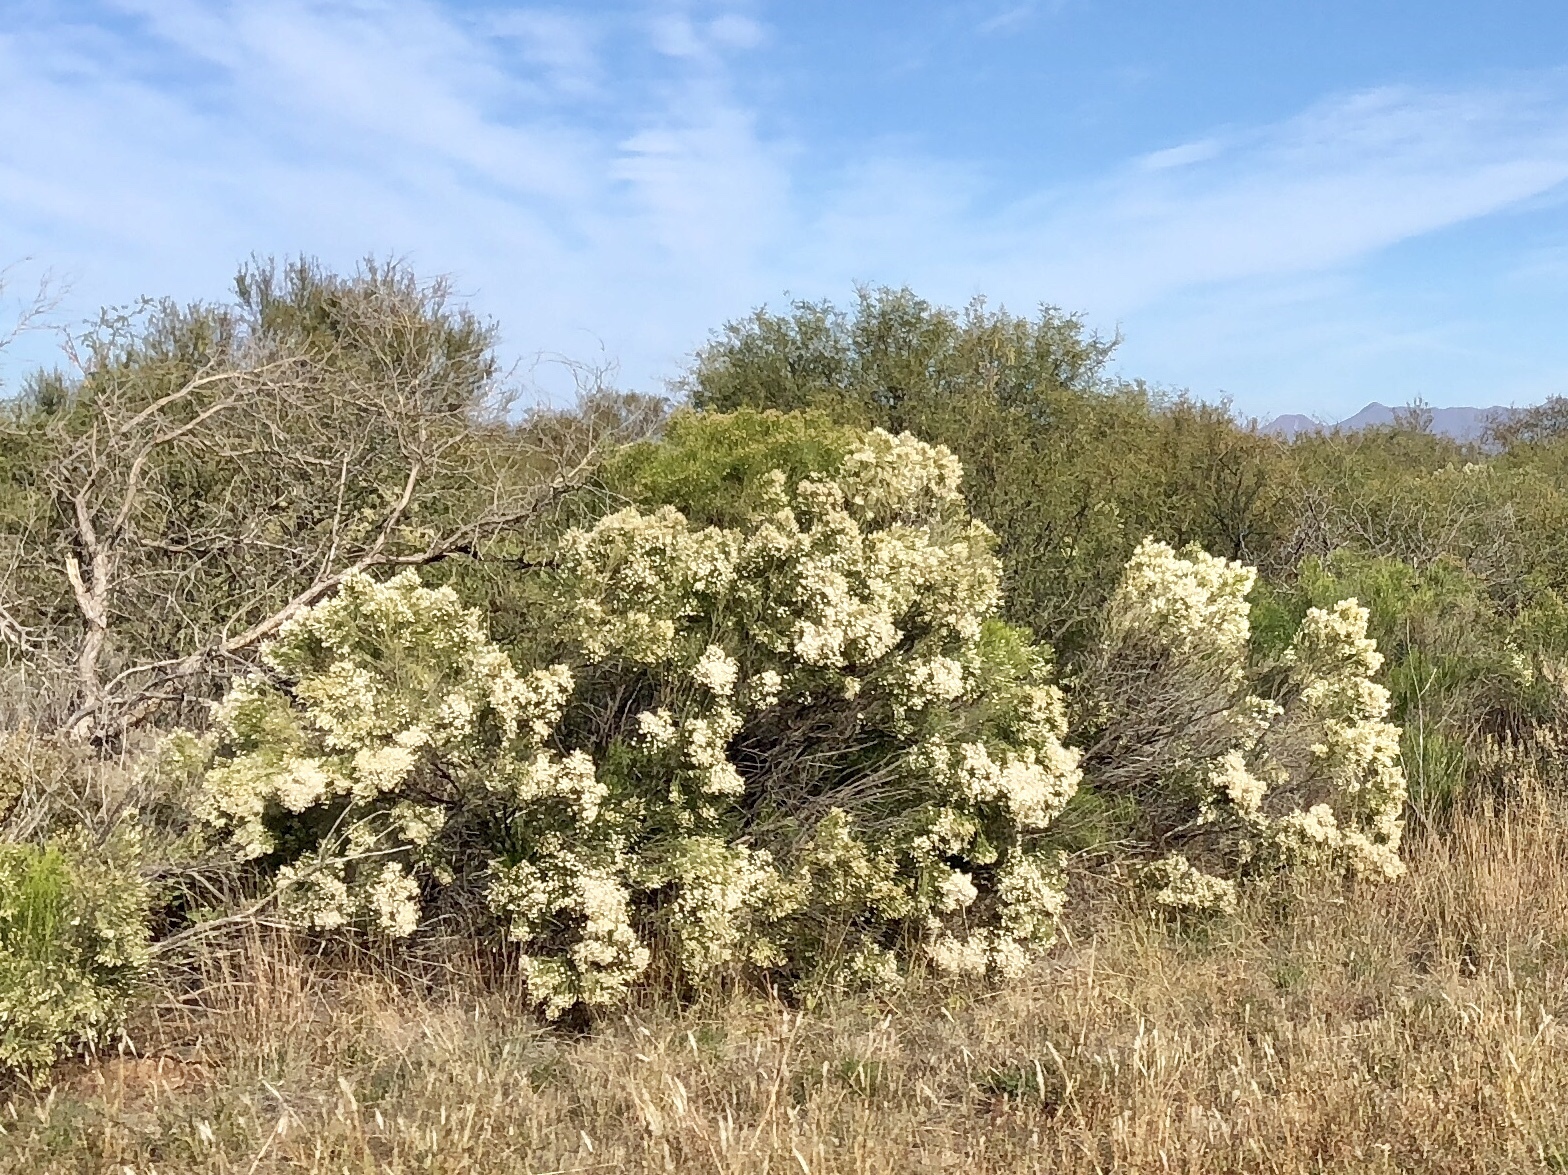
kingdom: Plantae
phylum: Tracheophyta
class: Magnoliopsida
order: Asterales
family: Asteraceae
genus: Baccharis
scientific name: Baccharis sarothroides
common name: Desert-broom
